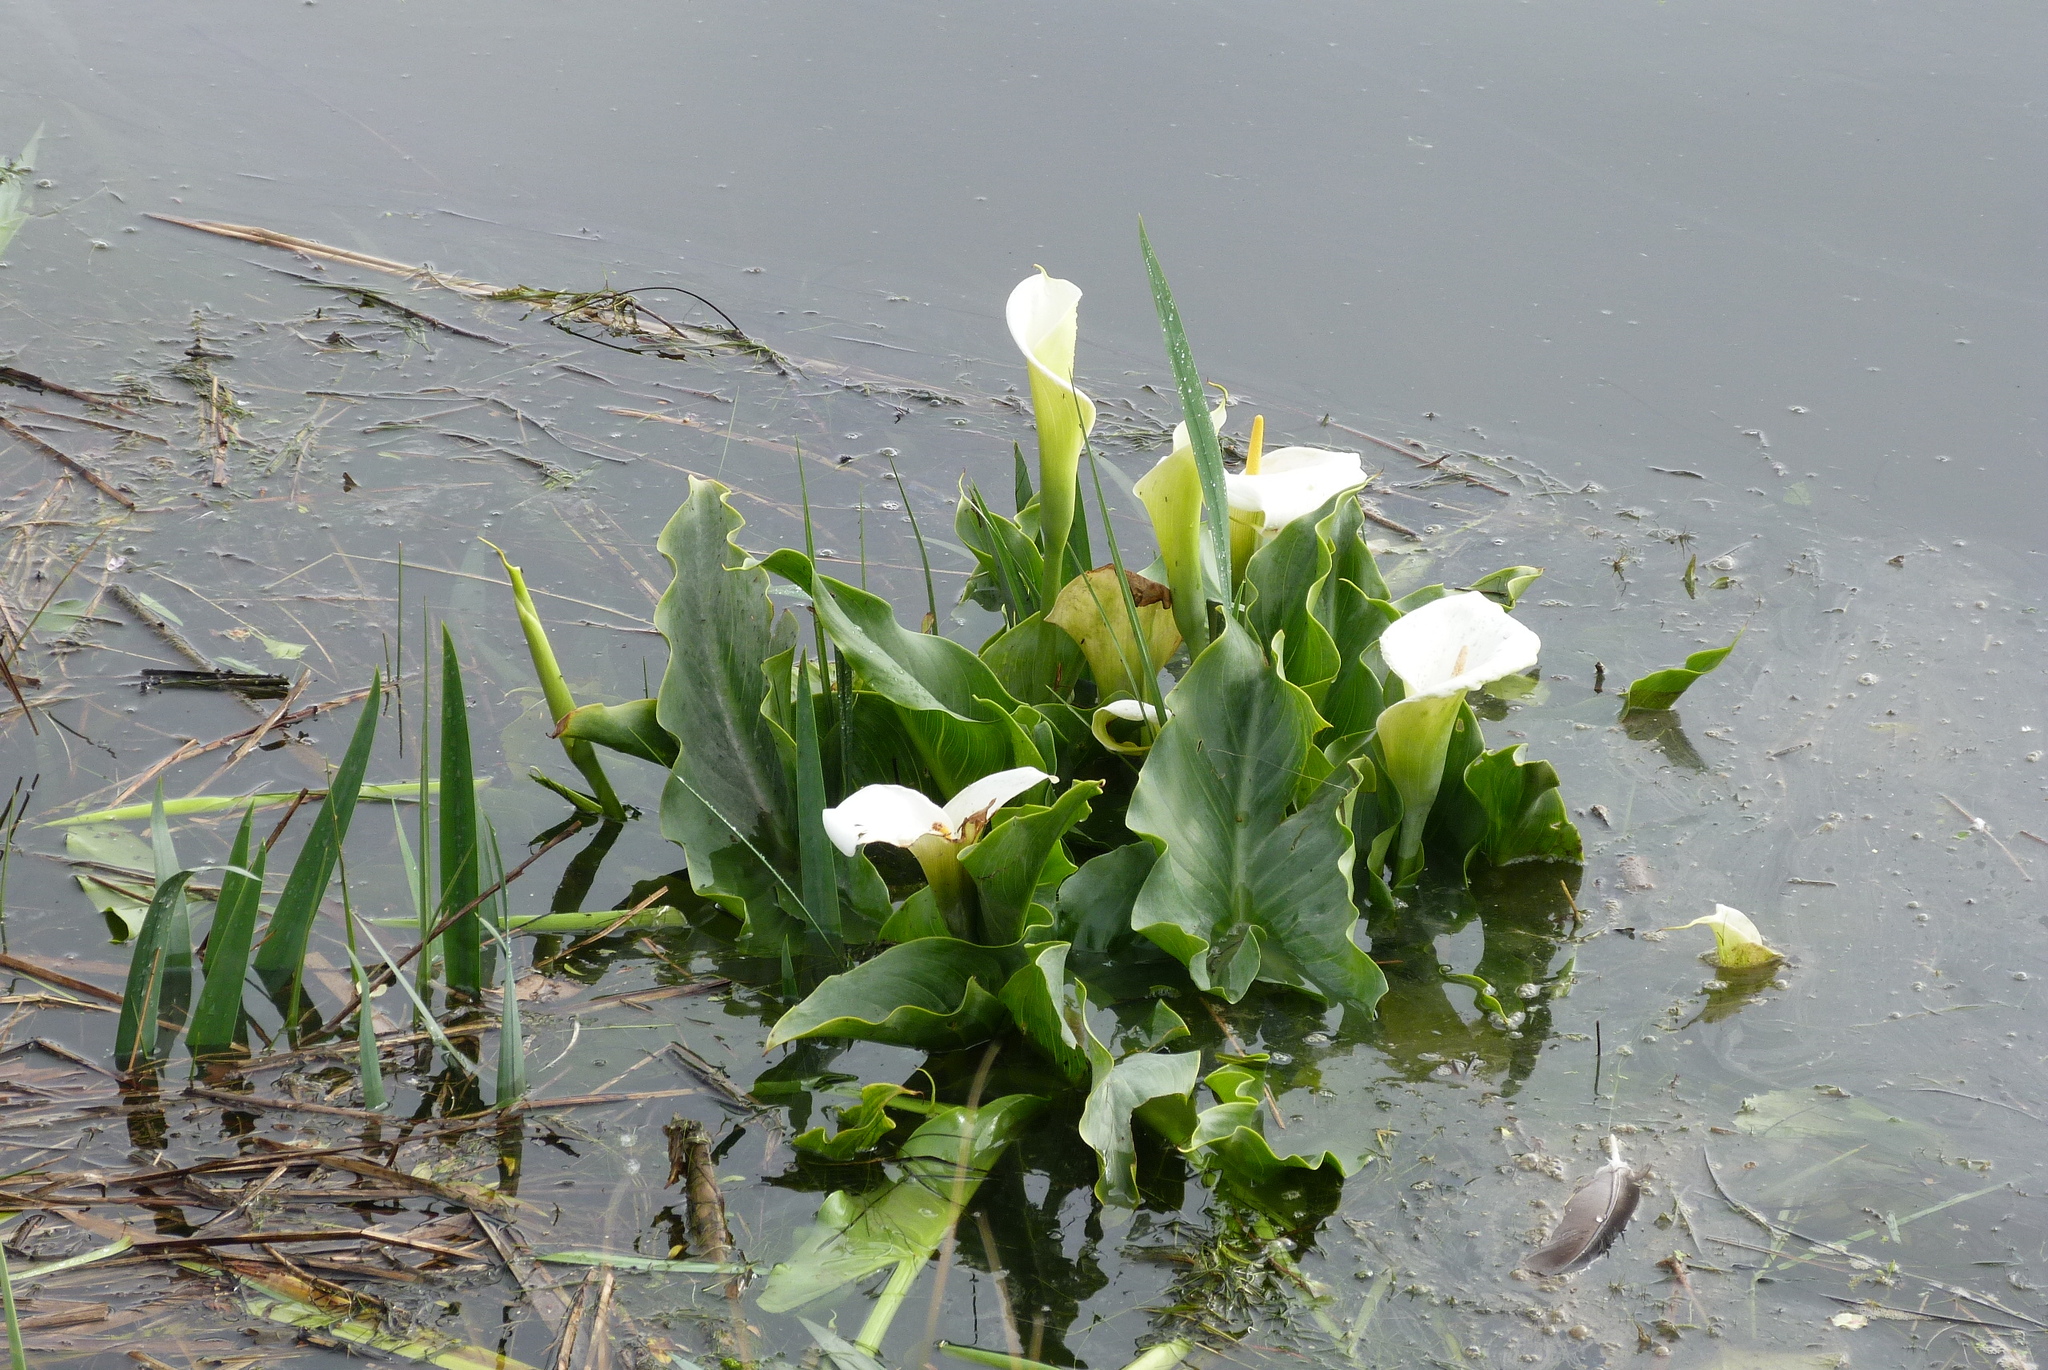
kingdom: Plantae
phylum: Tracheophyta
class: Liliopsida
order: Alismatales
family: Araceae
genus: Zantedeschia
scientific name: Zantedeschia aethiopica
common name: Altar-lily
